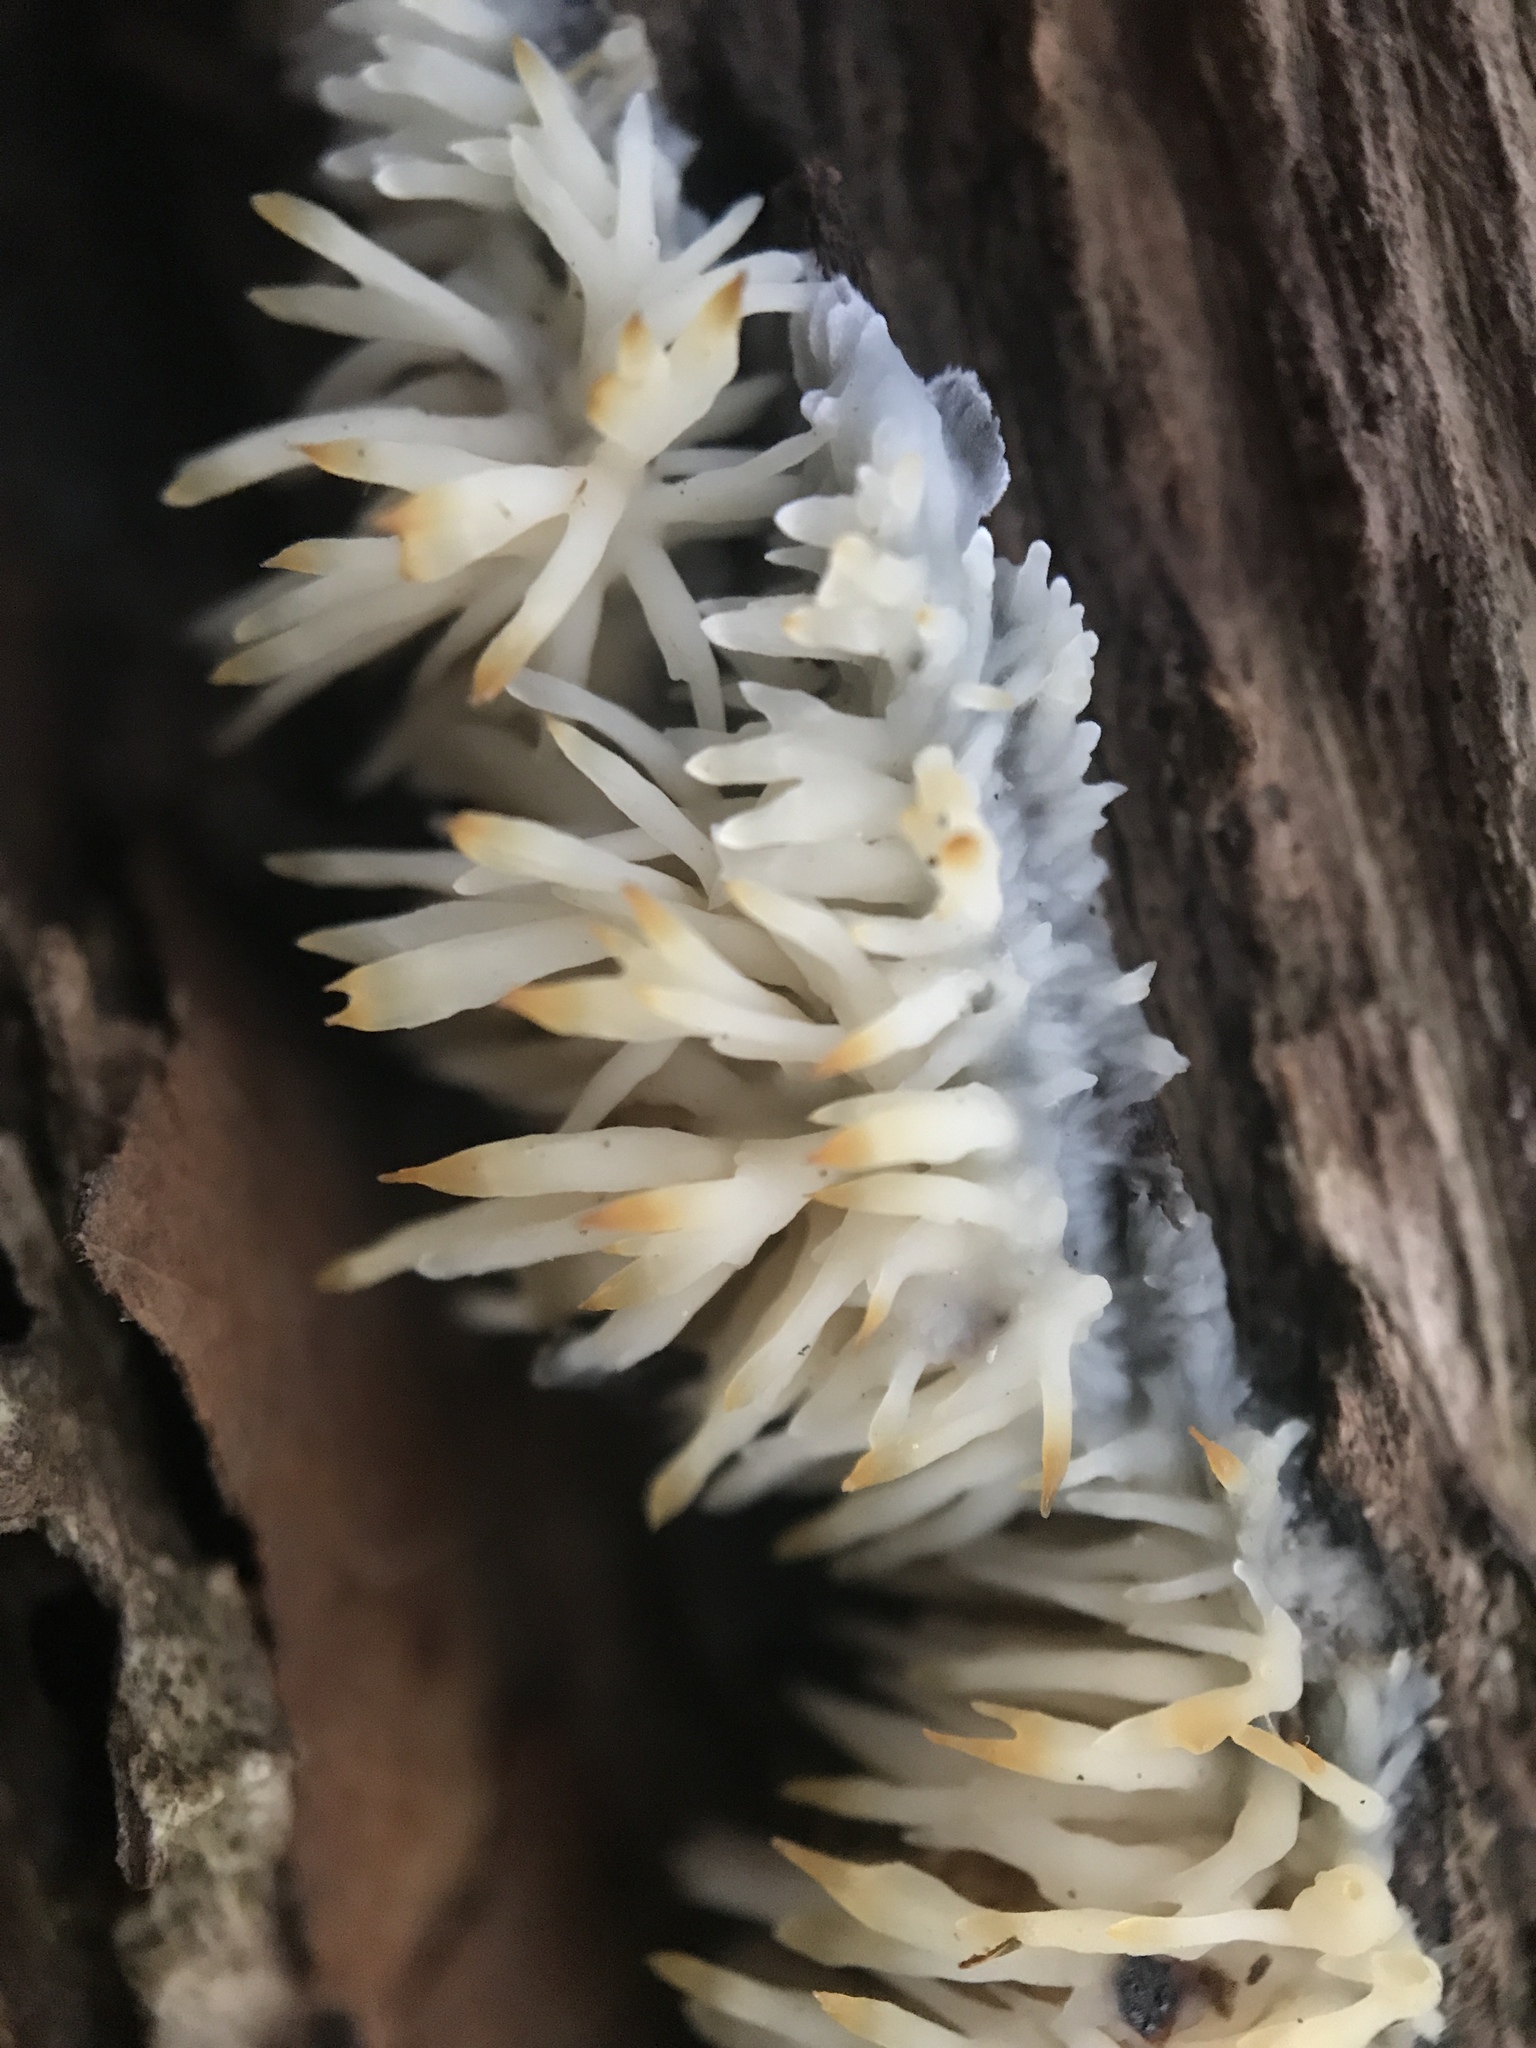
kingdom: Fungi
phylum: Basidiomycota
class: Agaricomycetes
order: Agaricales
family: Radulomycetaceae
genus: Radulomyces
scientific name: Radulomyces copelandii
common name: Asian beauty
